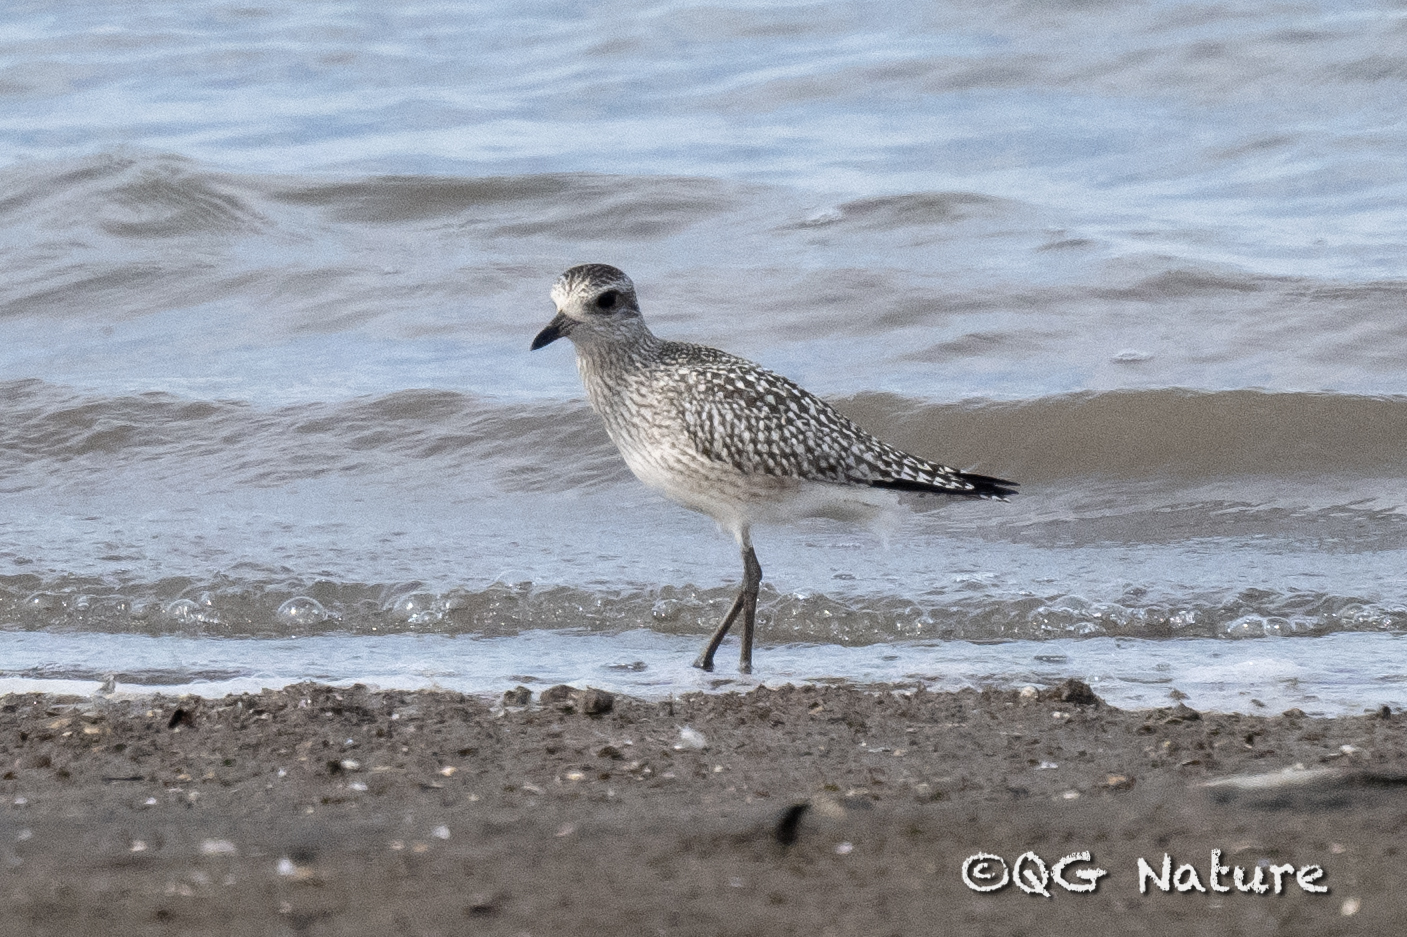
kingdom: Animalia
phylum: Chordata
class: Aves
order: Charadriiformes
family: Charadriidae
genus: Pluvialis
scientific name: Pluvialis squatarola
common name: Grey plover
